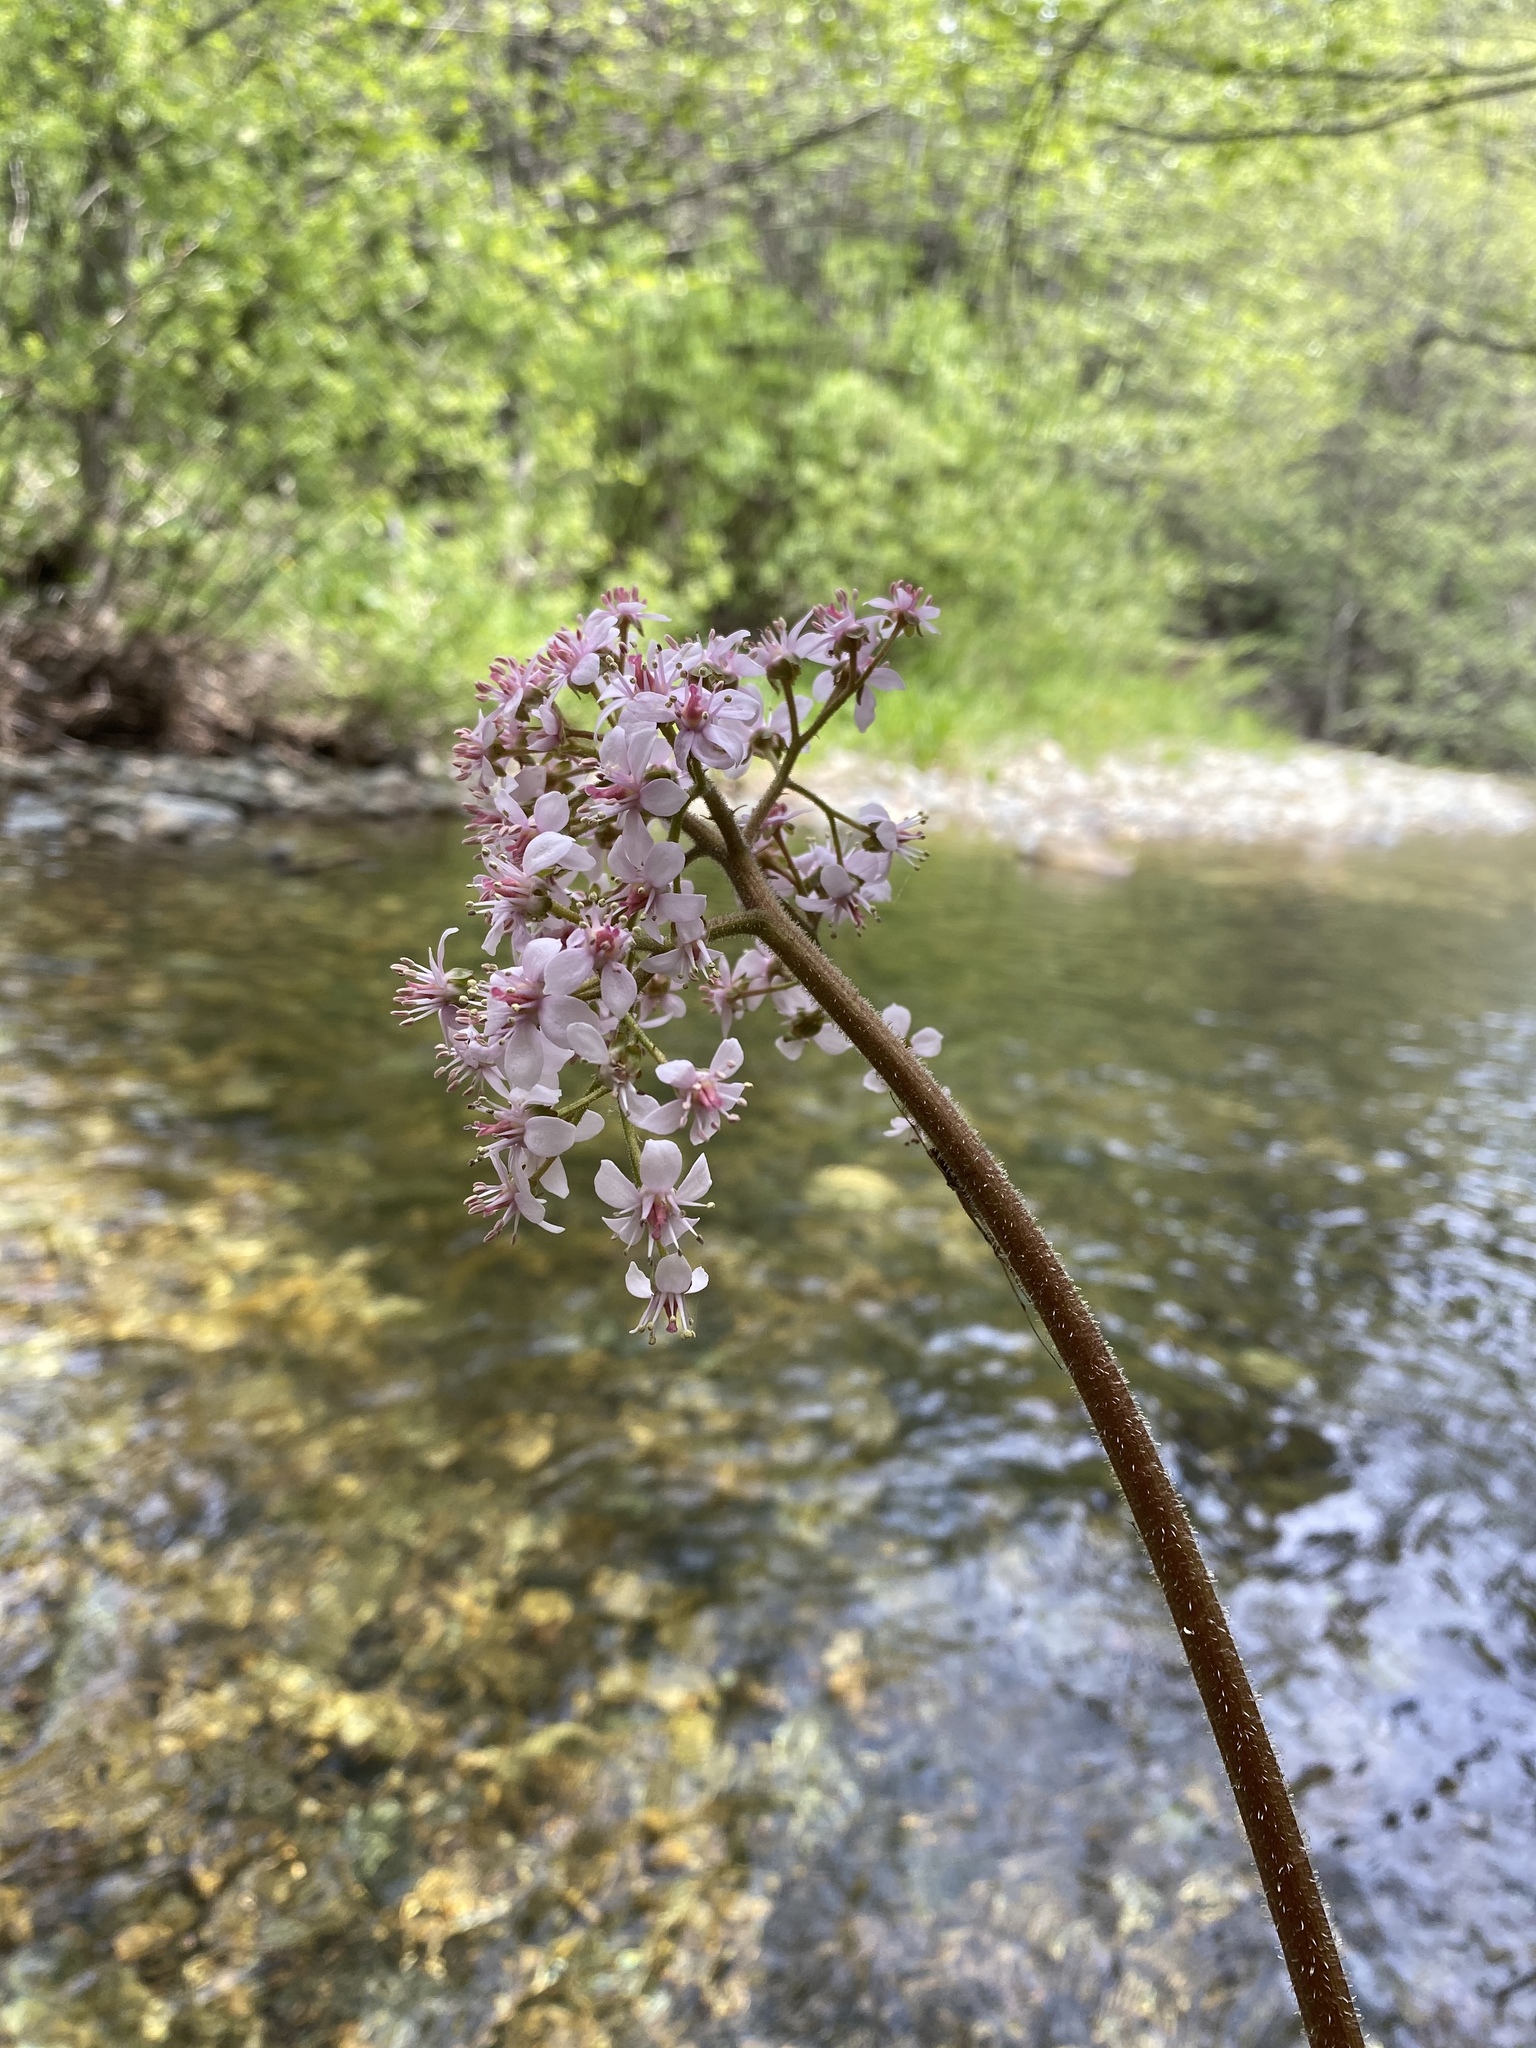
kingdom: Plantae
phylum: Tracheophyta
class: Magnoliopsida
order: Saxifragales
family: Saxifragaceae
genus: Darmera
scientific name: Darmera peltata
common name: Indian-rhubarb
